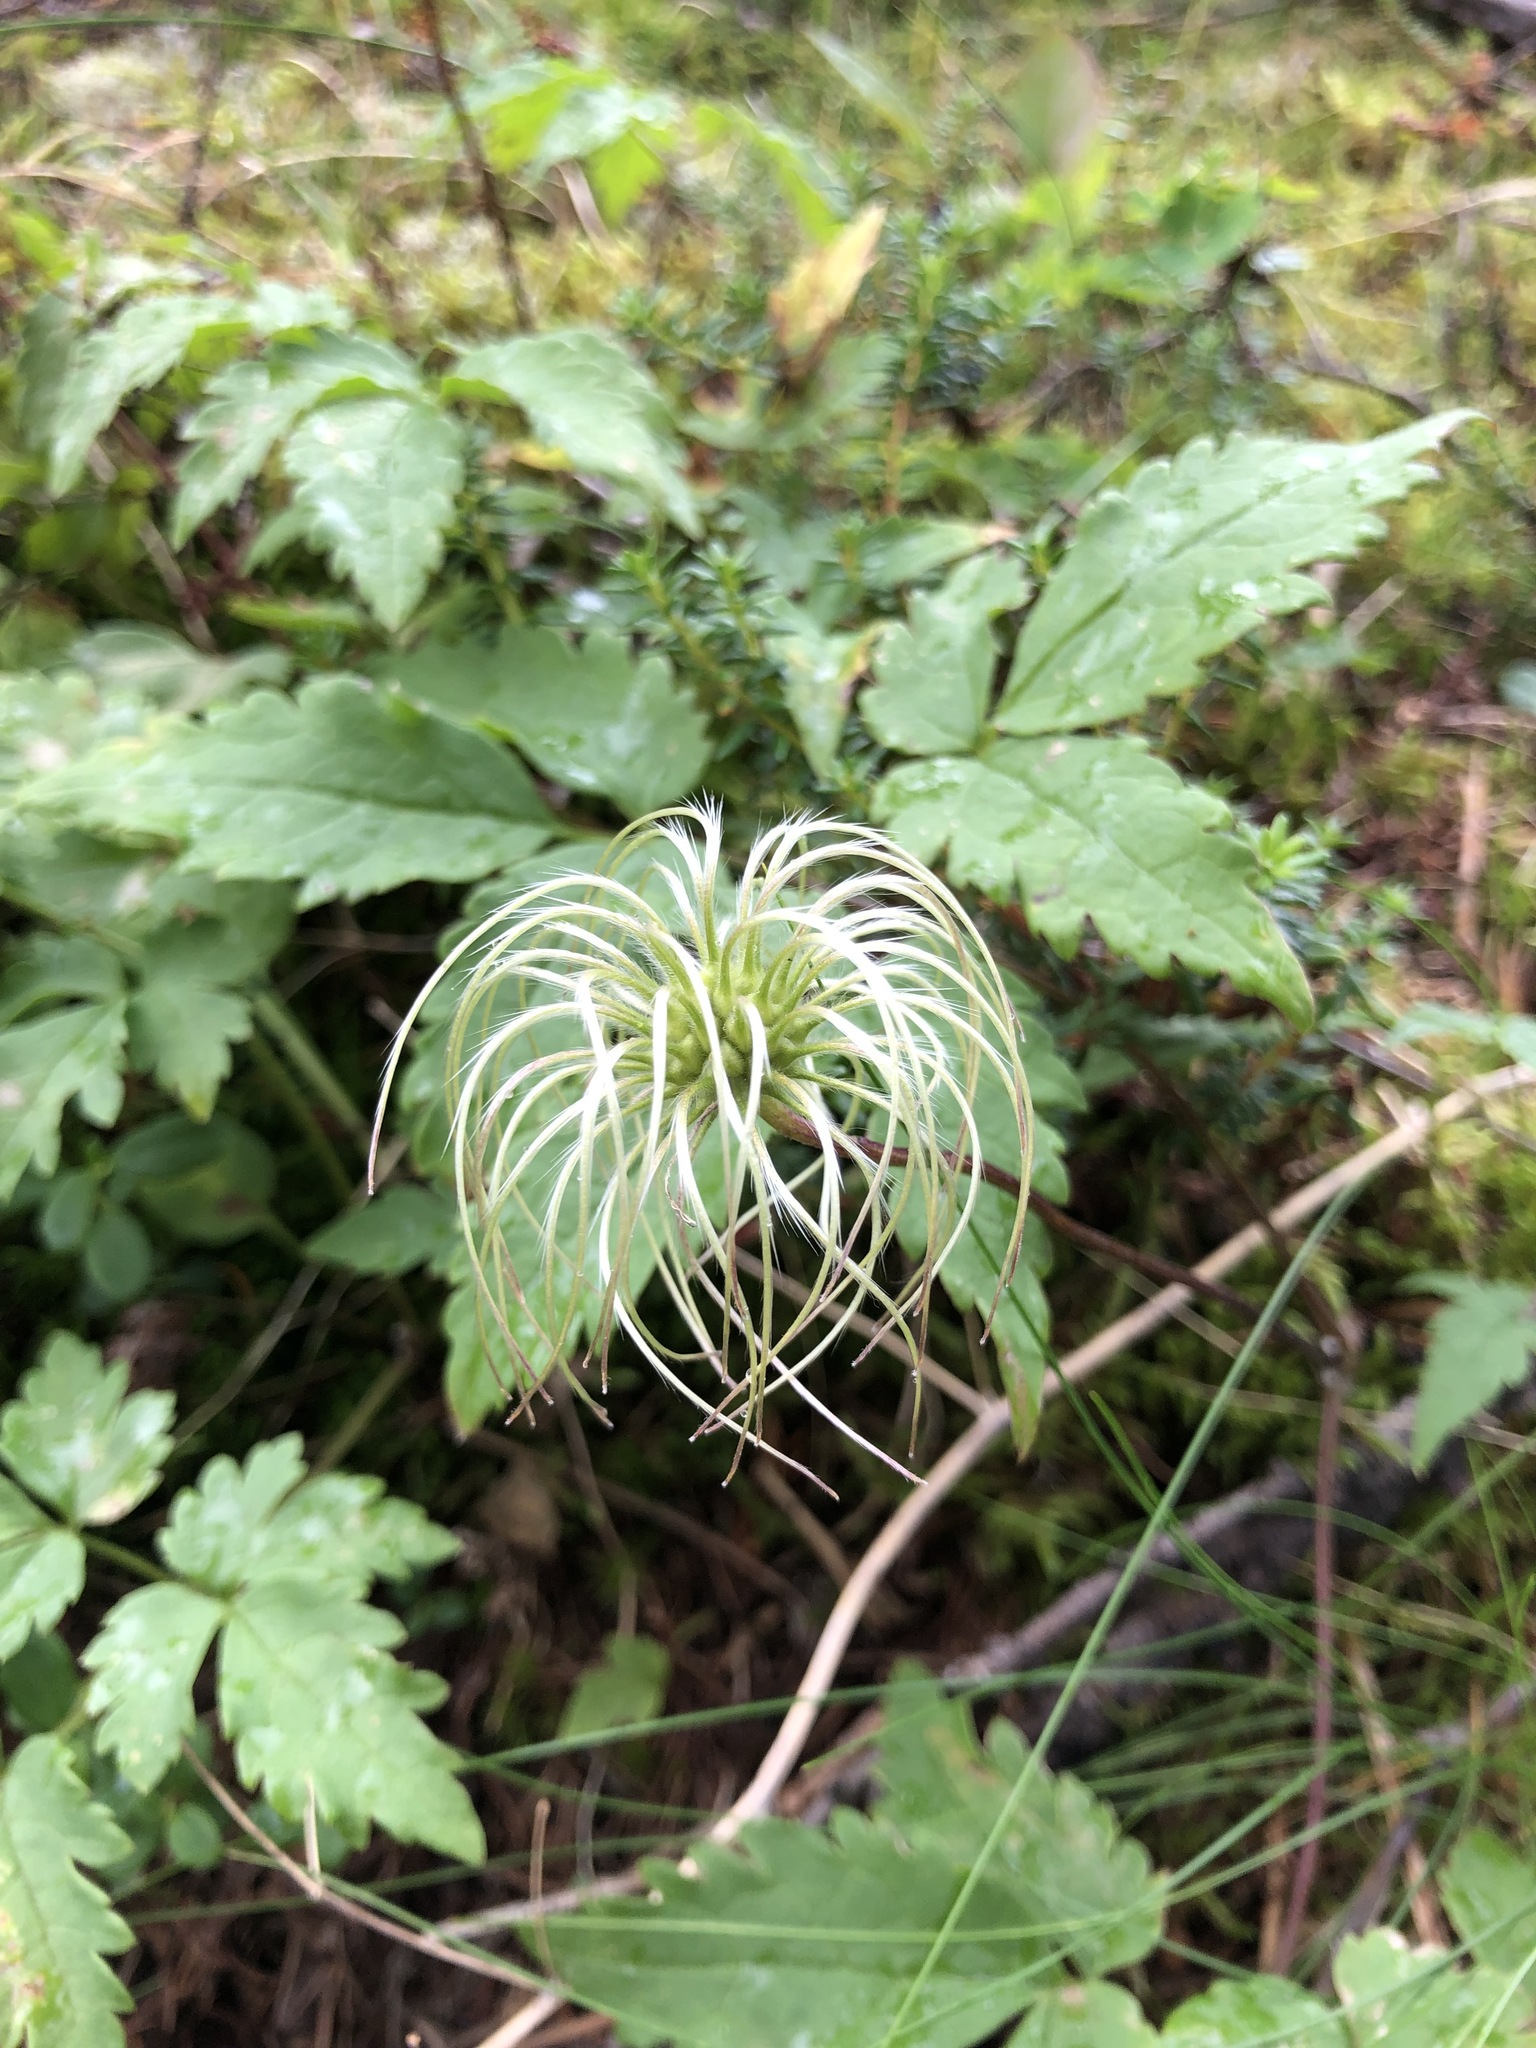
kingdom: Plantae
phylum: Tracheophyta
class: Magnoliopsida
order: Ranunculales
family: Ranunculaceae
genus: Clematis
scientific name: Clematis sibirica
